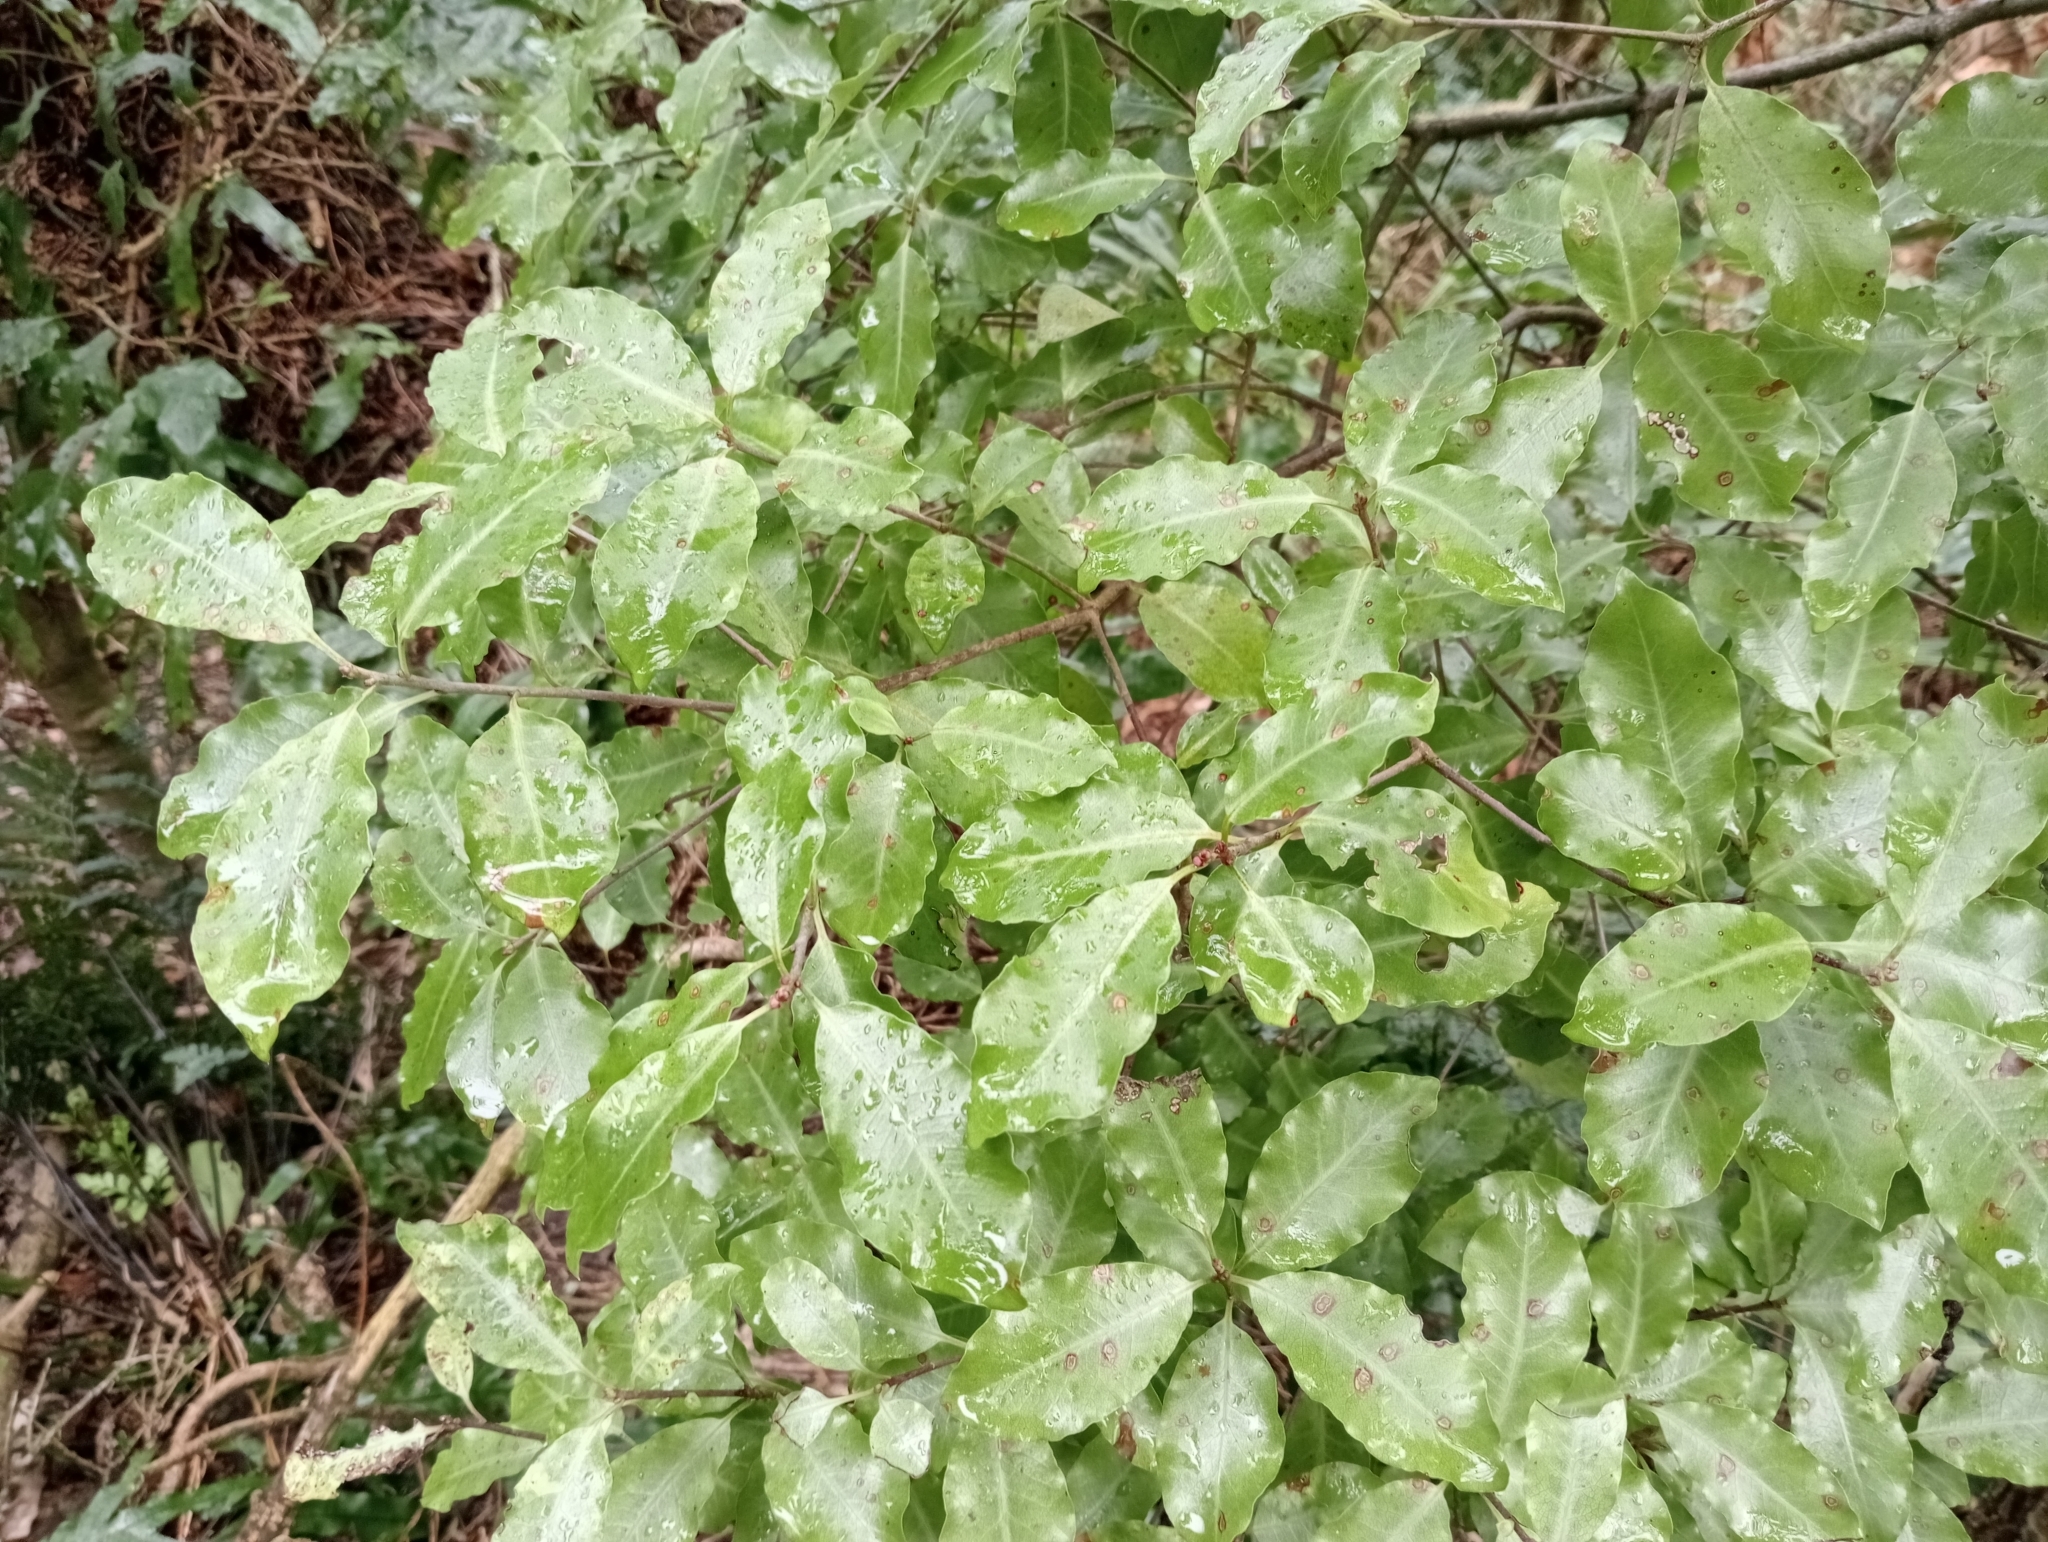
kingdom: Plantae
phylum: Tracheophyta
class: Magnoliopsida
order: Apiales
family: Pittosporaceae
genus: Pittosporum
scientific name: Pittosporum tenuifolium
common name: Kohuhu
